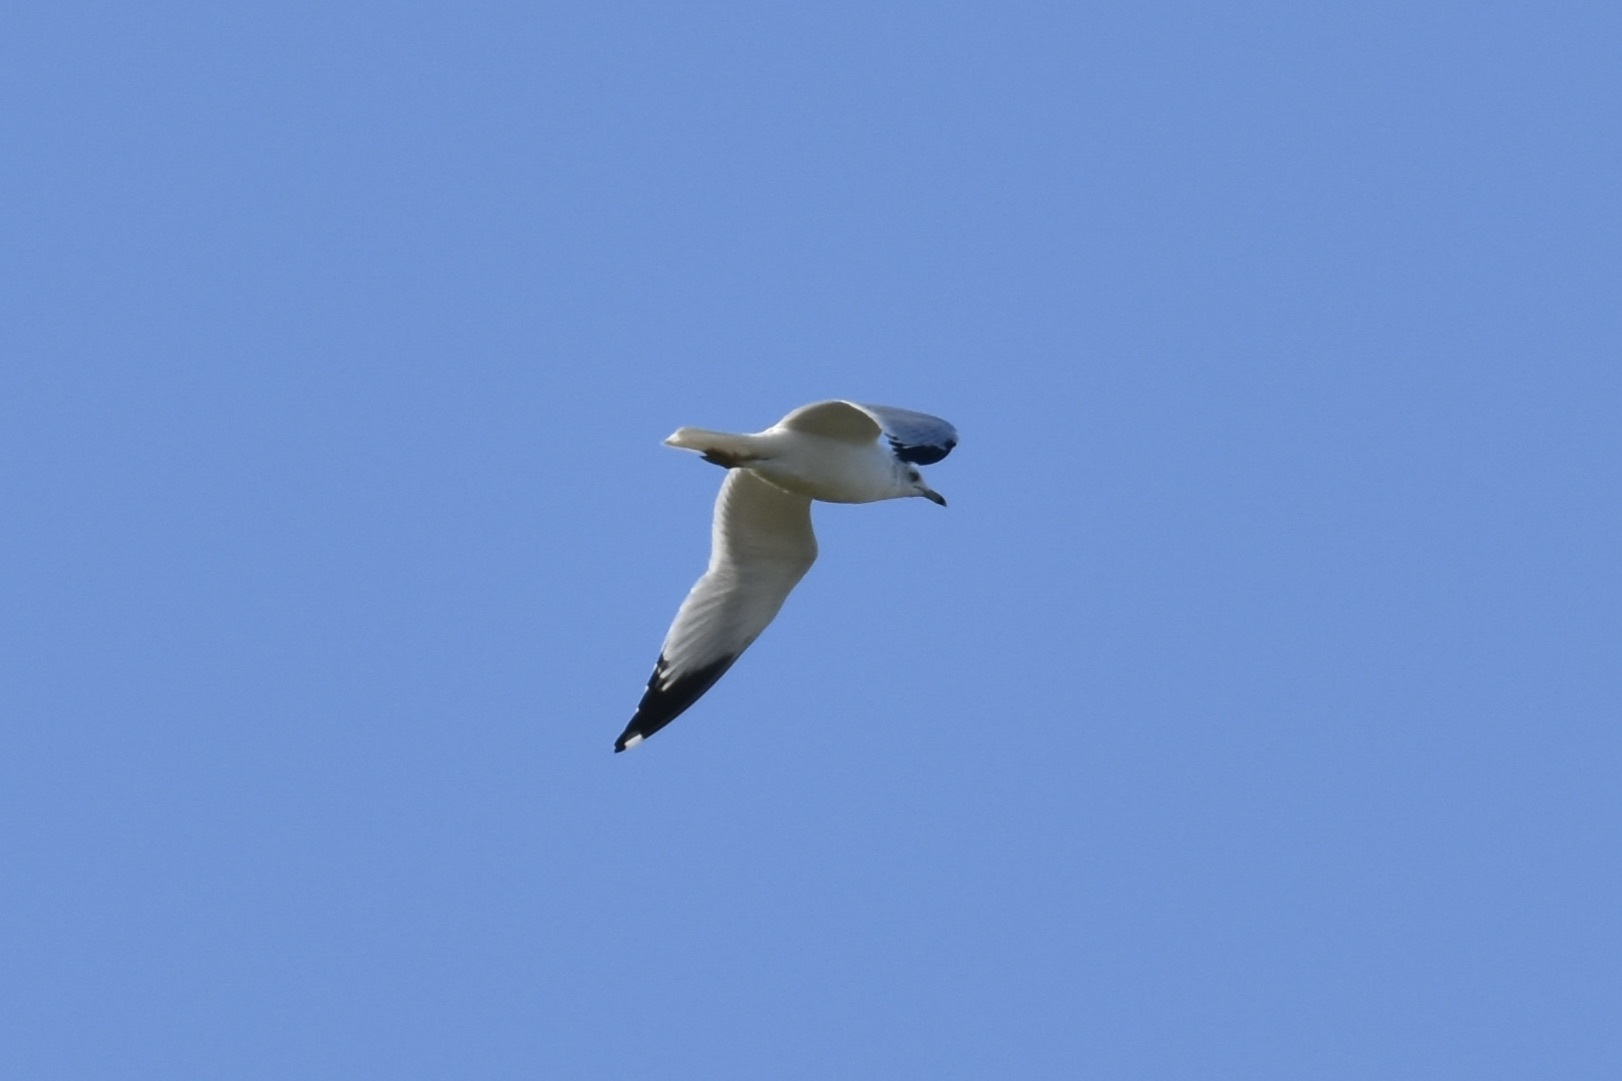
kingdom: Animalia
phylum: Chordata
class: Aves
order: Charadriiformes
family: Laridae
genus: Larus
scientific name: Larus delawarensis
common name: Ring-billed gull
